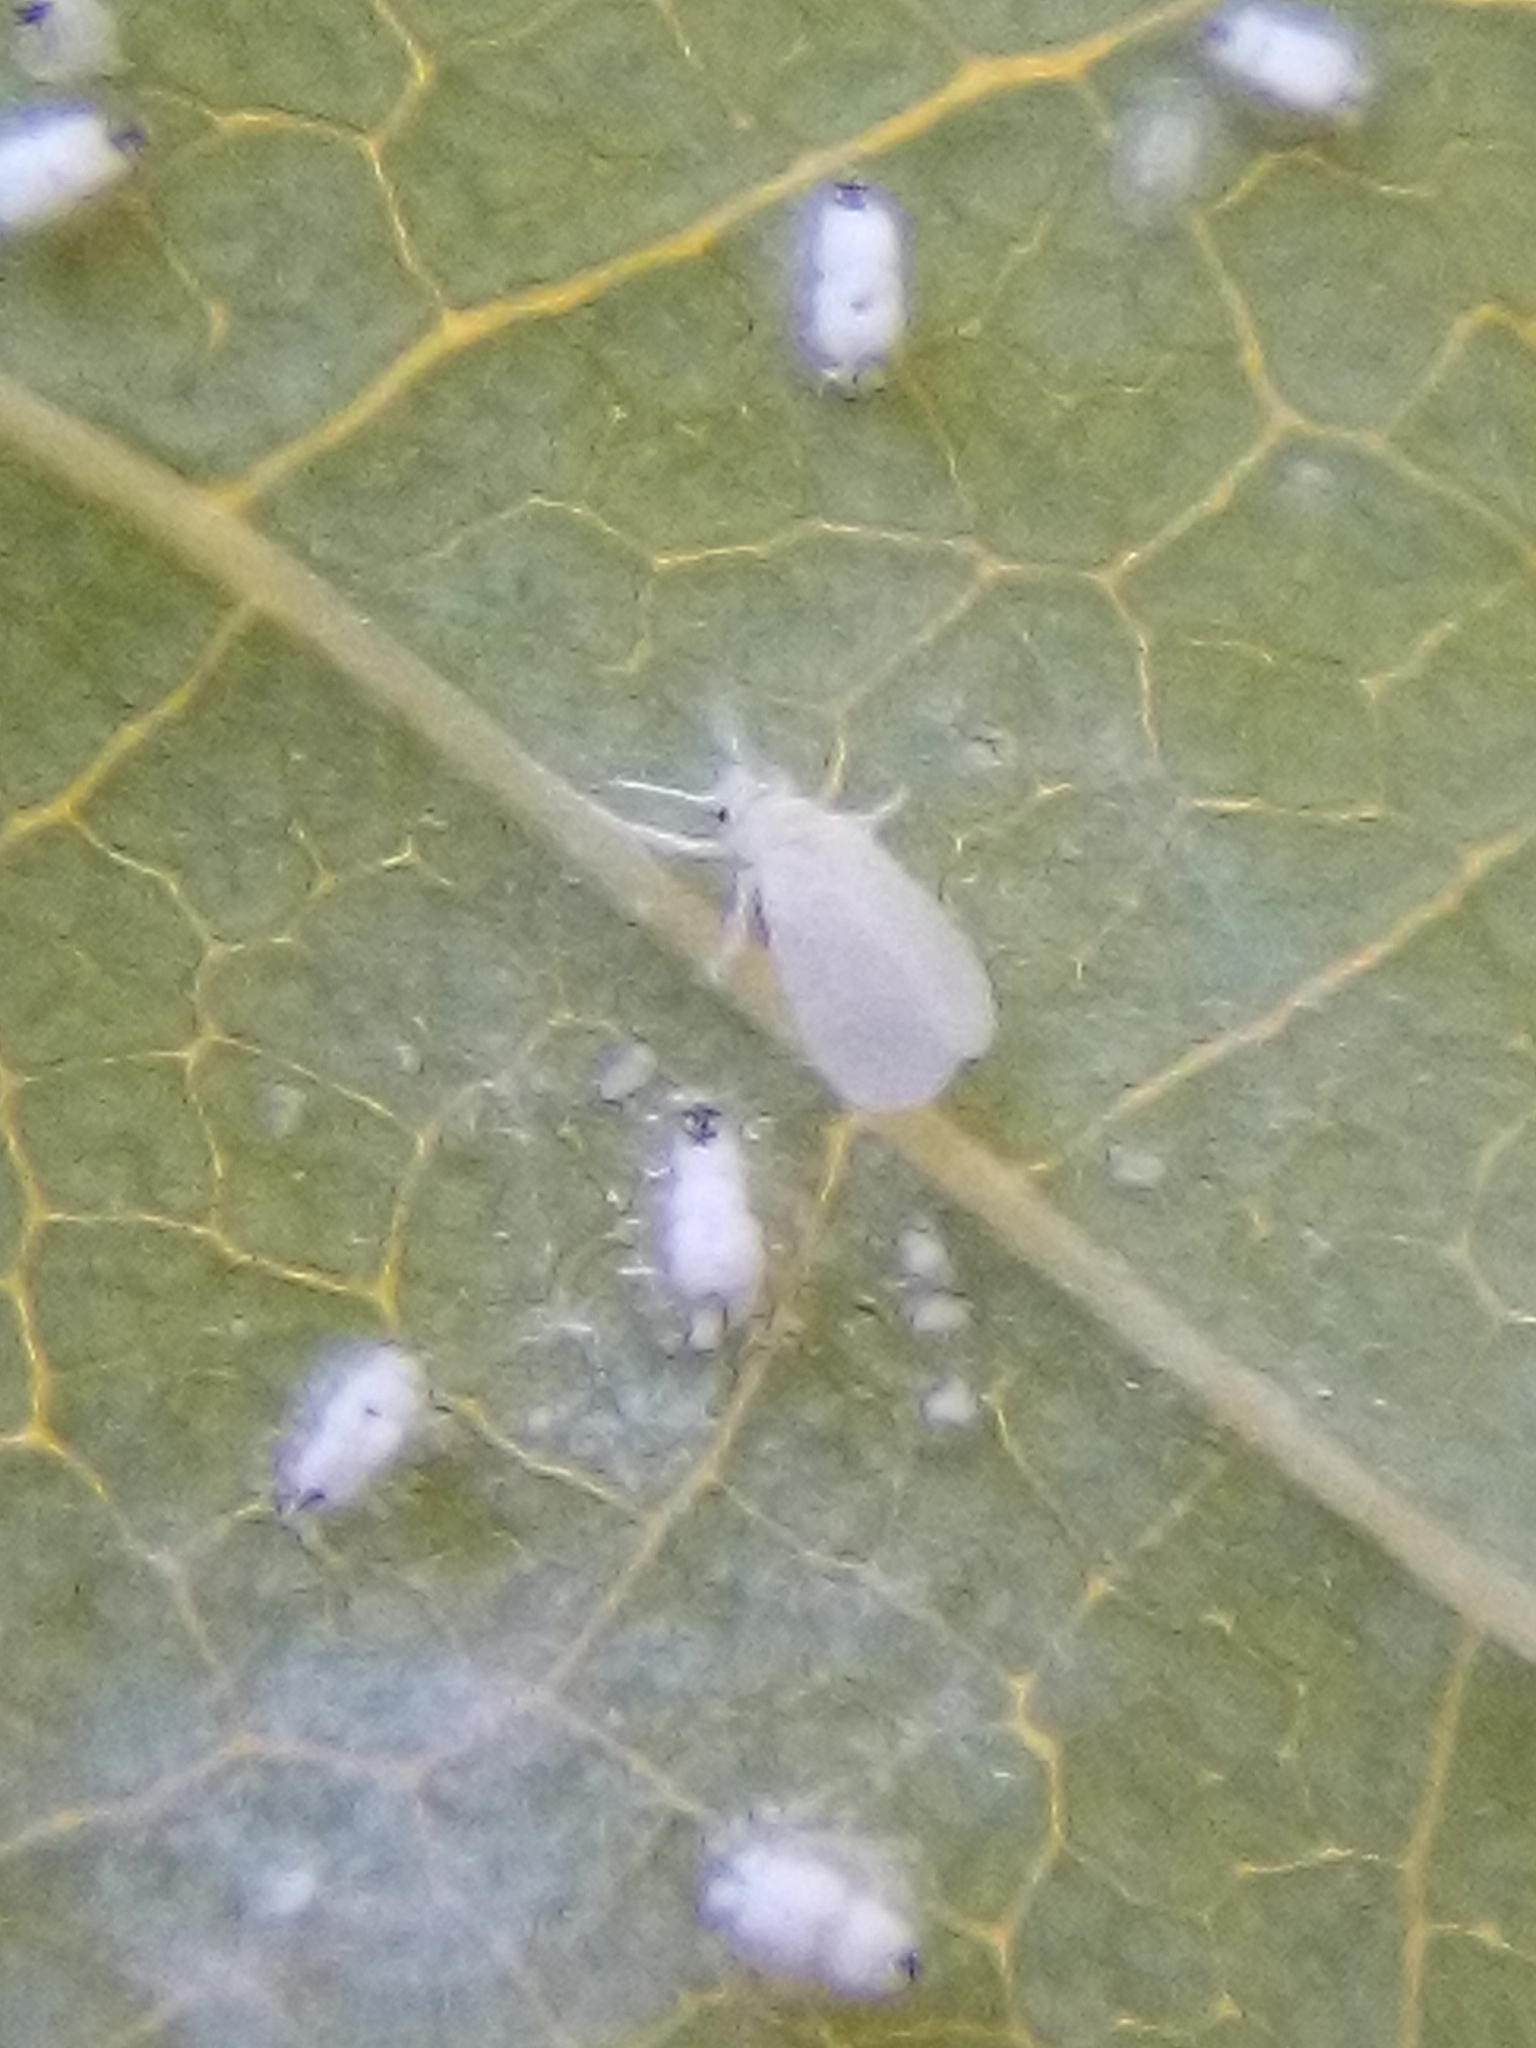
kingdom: Animalia
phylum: Arthropoda
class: Insecta
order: Hemiptera
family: Aleyrodidae
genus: Siphoninus
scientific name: Siphoninus phillyreae
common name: Ash whitefly
